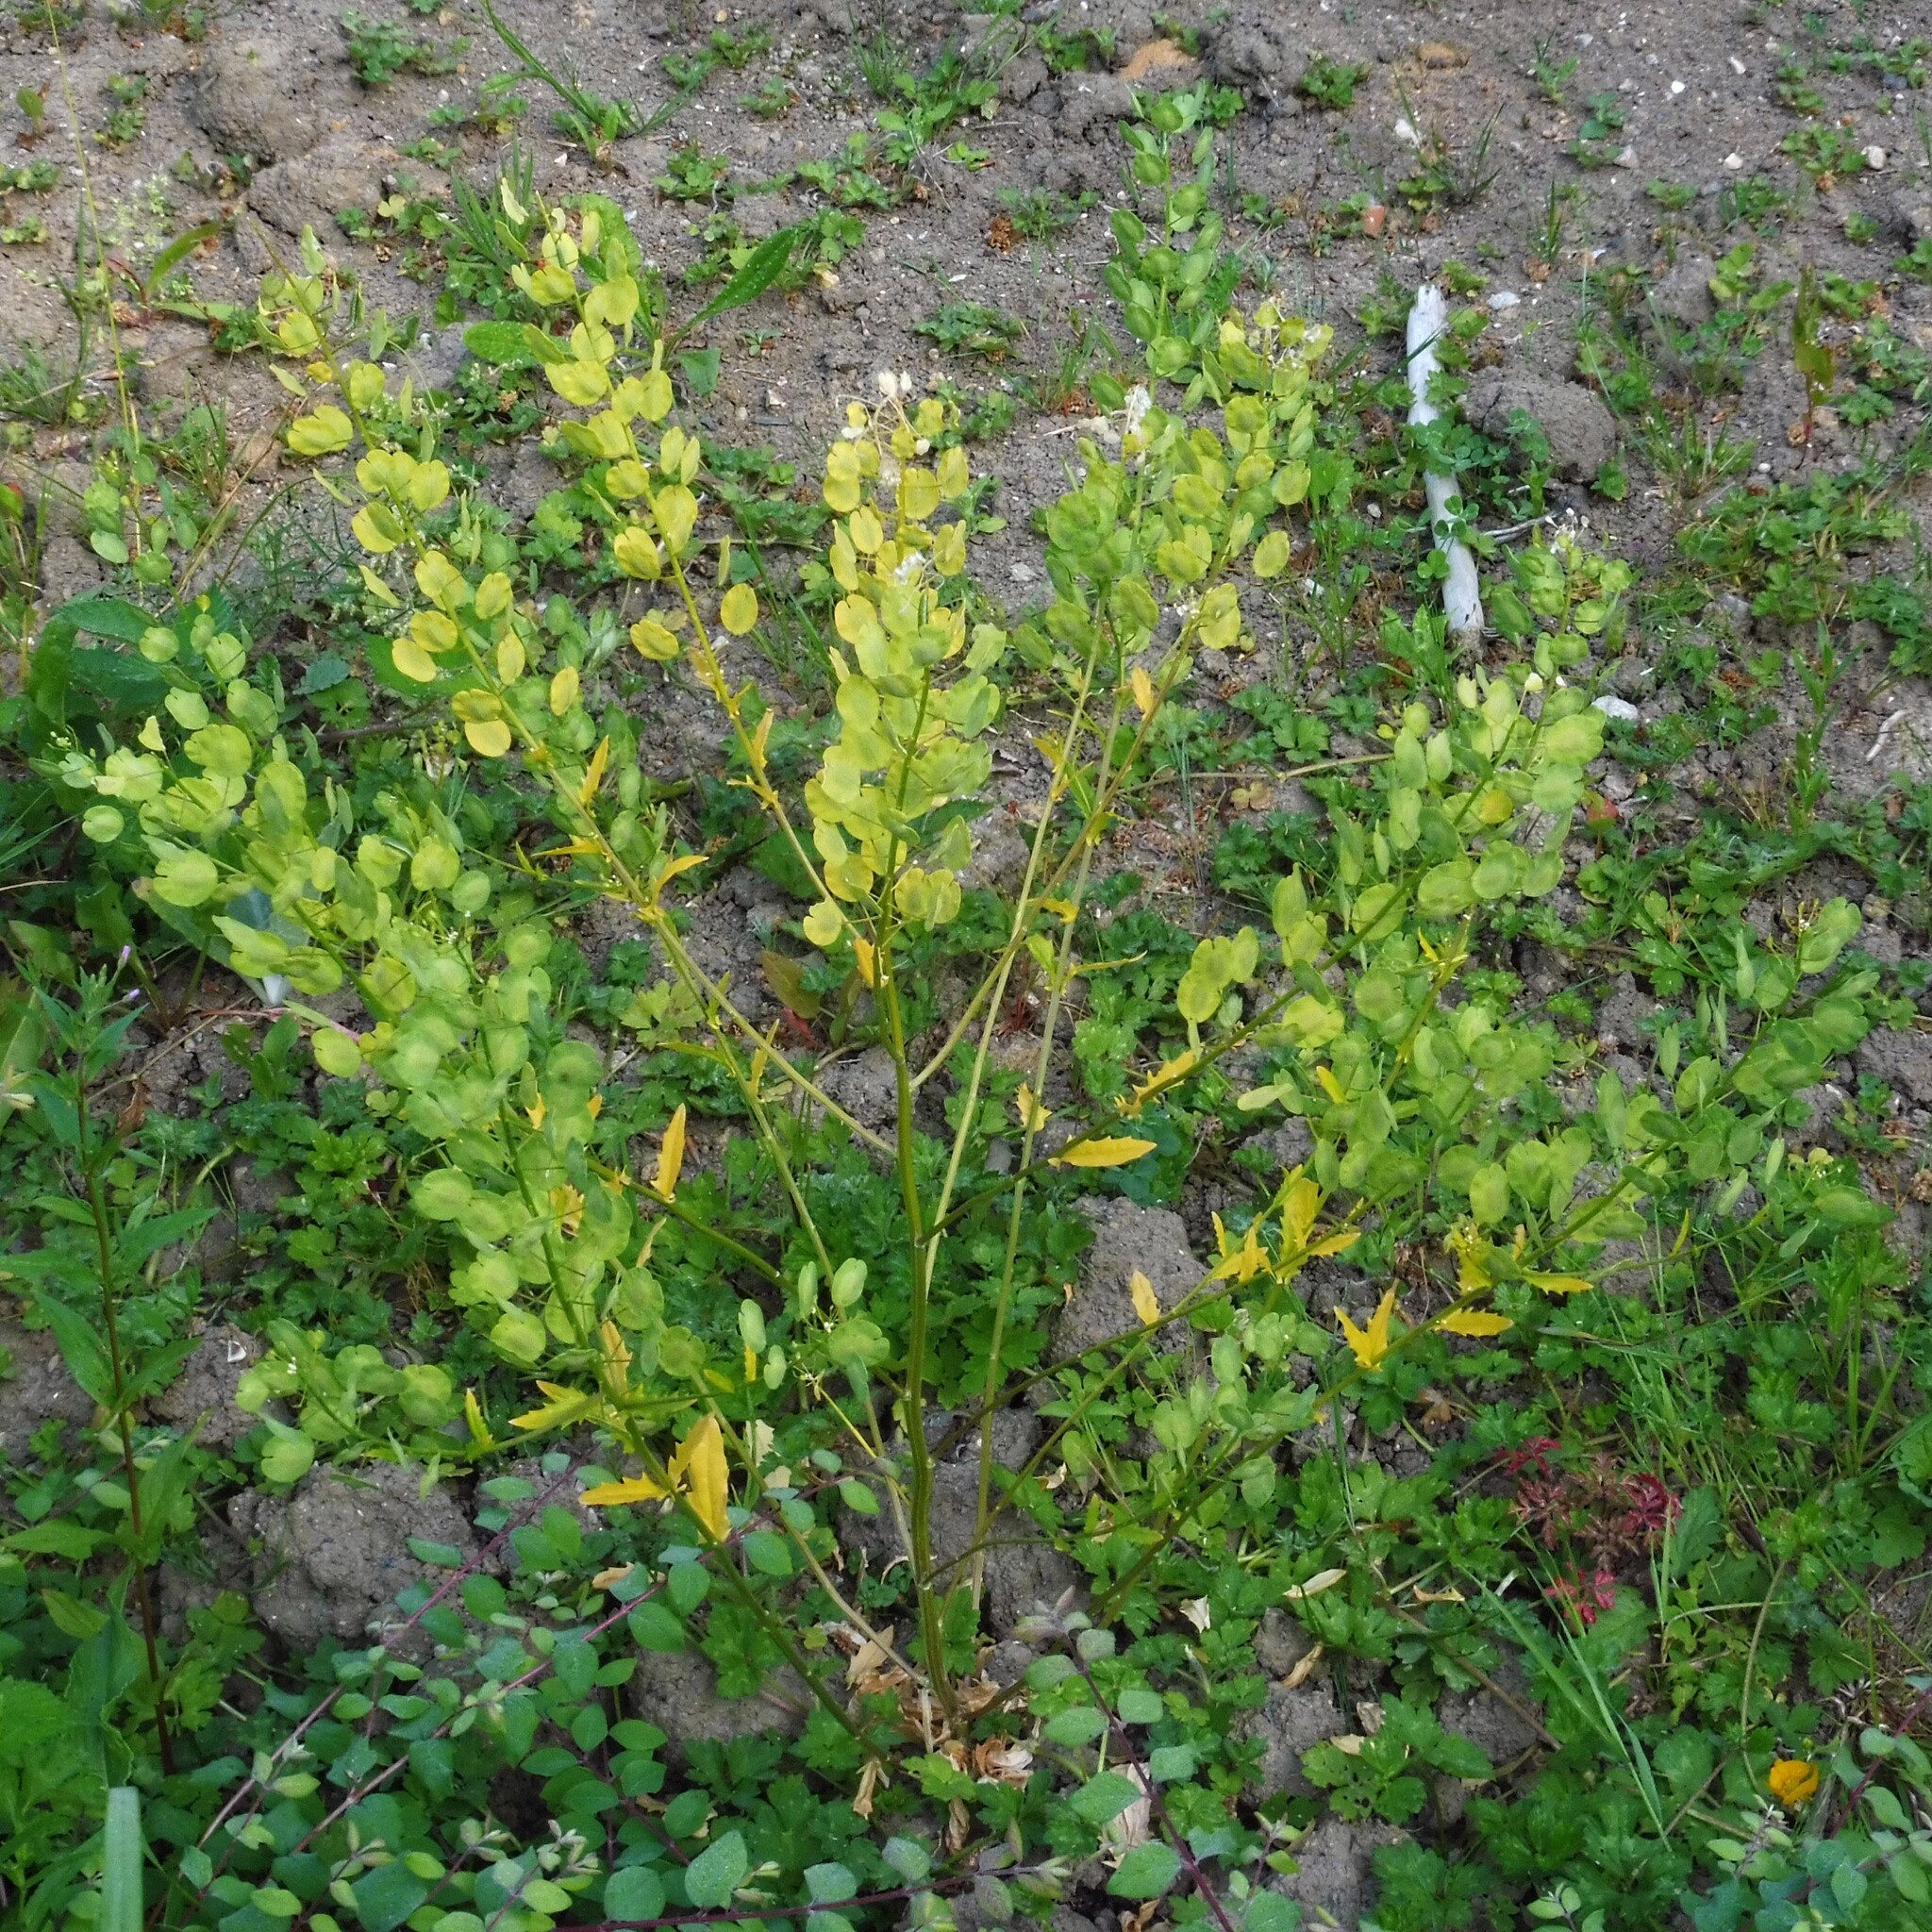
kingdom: Plantae
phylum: Tracheophyta
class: Magnoliopsida
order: Brassicales
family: Brassicaceae
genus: Thlaspi
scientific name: Thlaspi arvense
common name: Field pennycress
